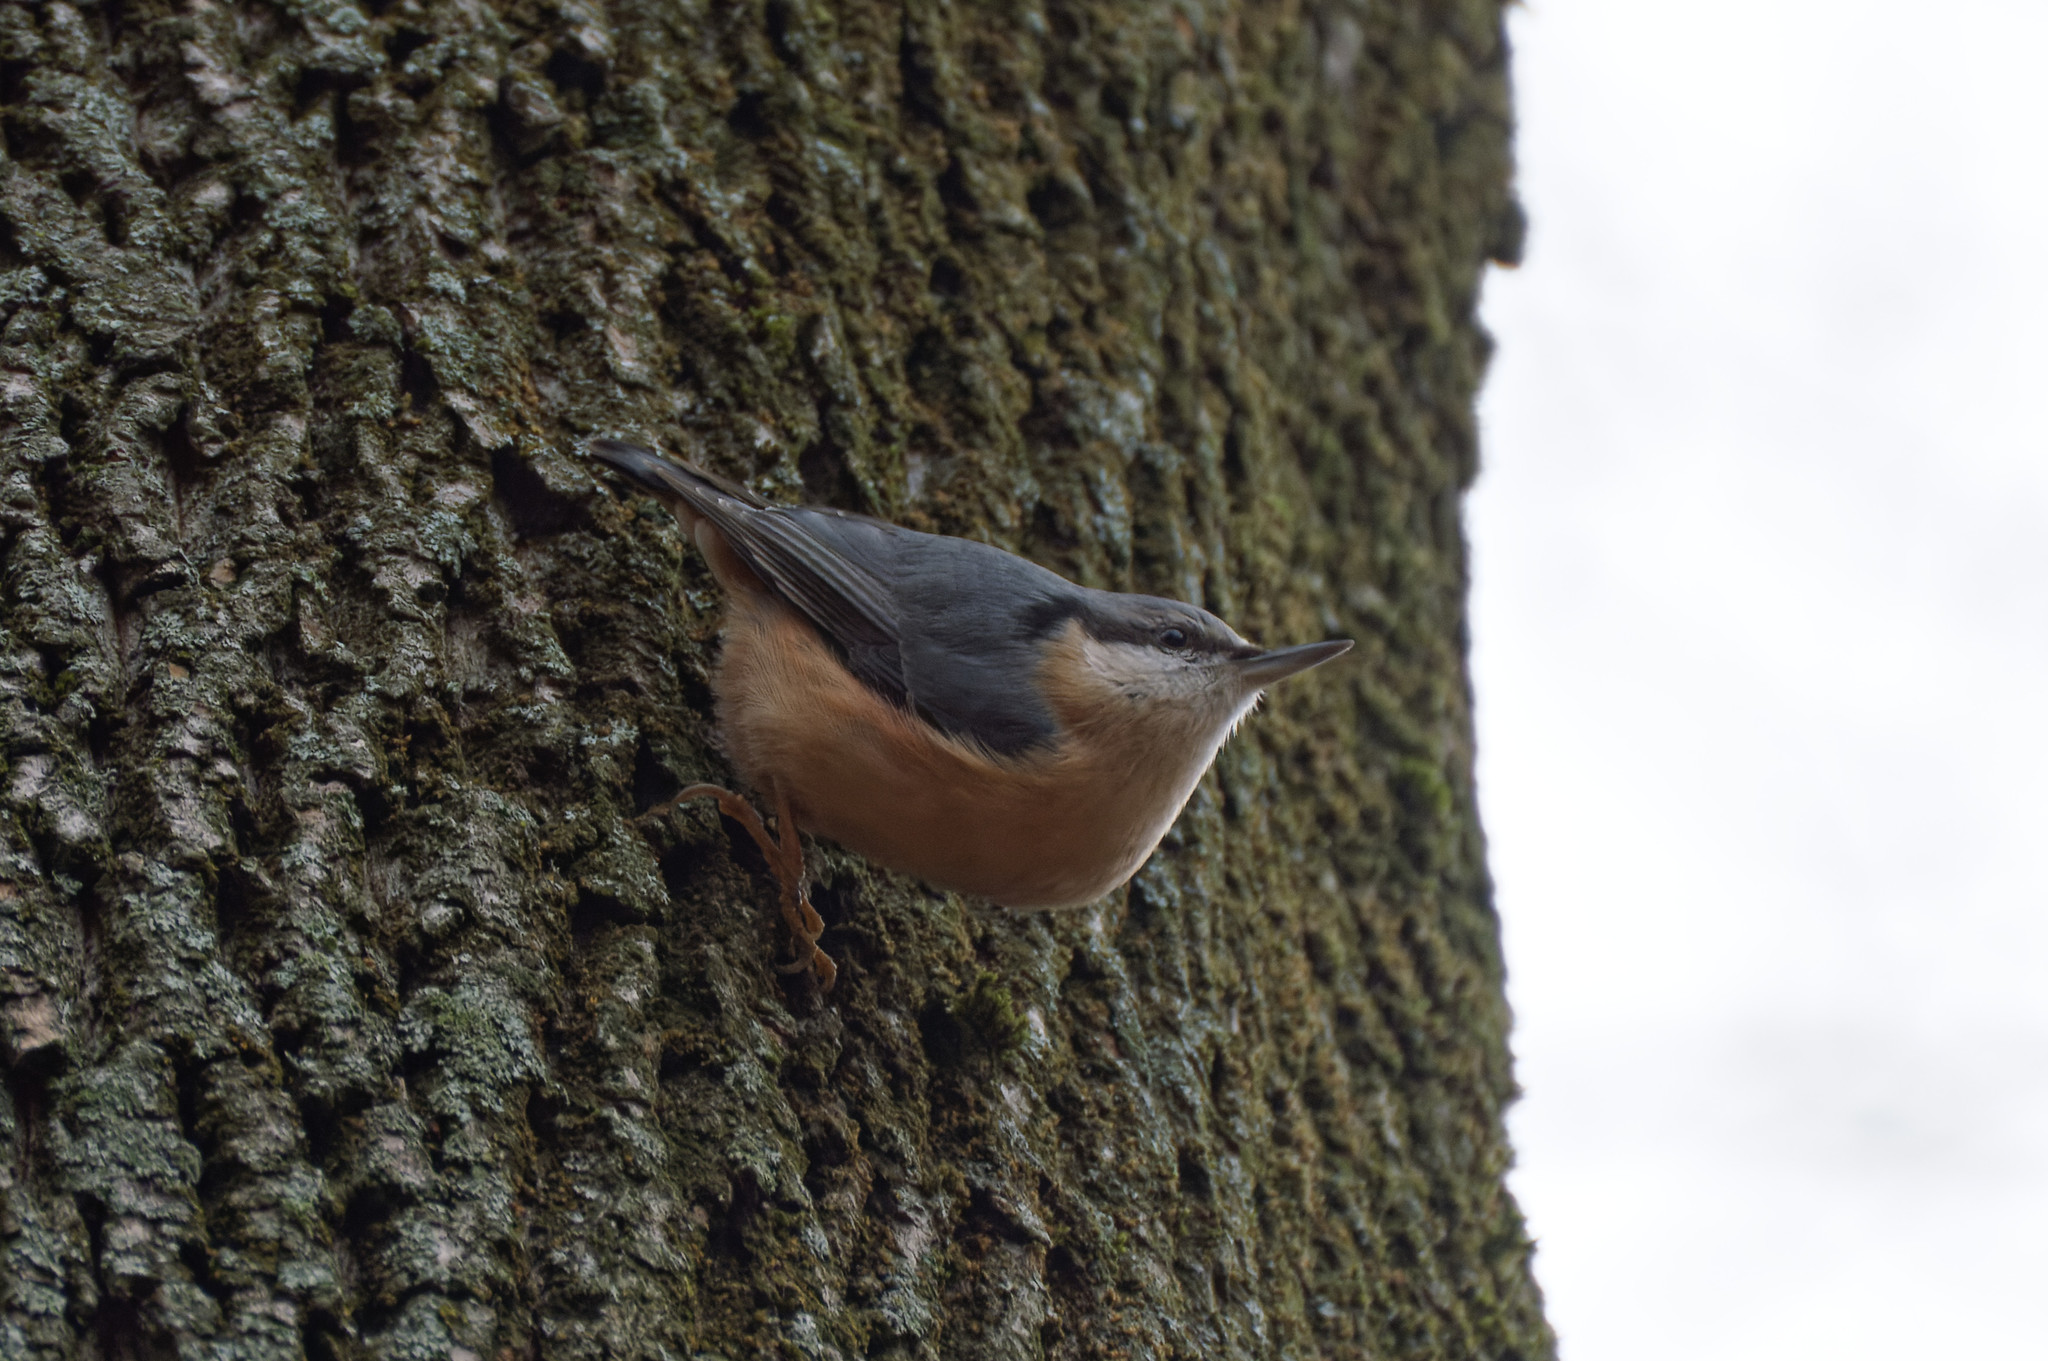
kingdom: Animalia
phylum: Chordata
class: Aves
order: Passeriformes
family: Sittidae
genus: Sitta
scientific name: Sitta europaea
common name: Eurasian nuthatch
